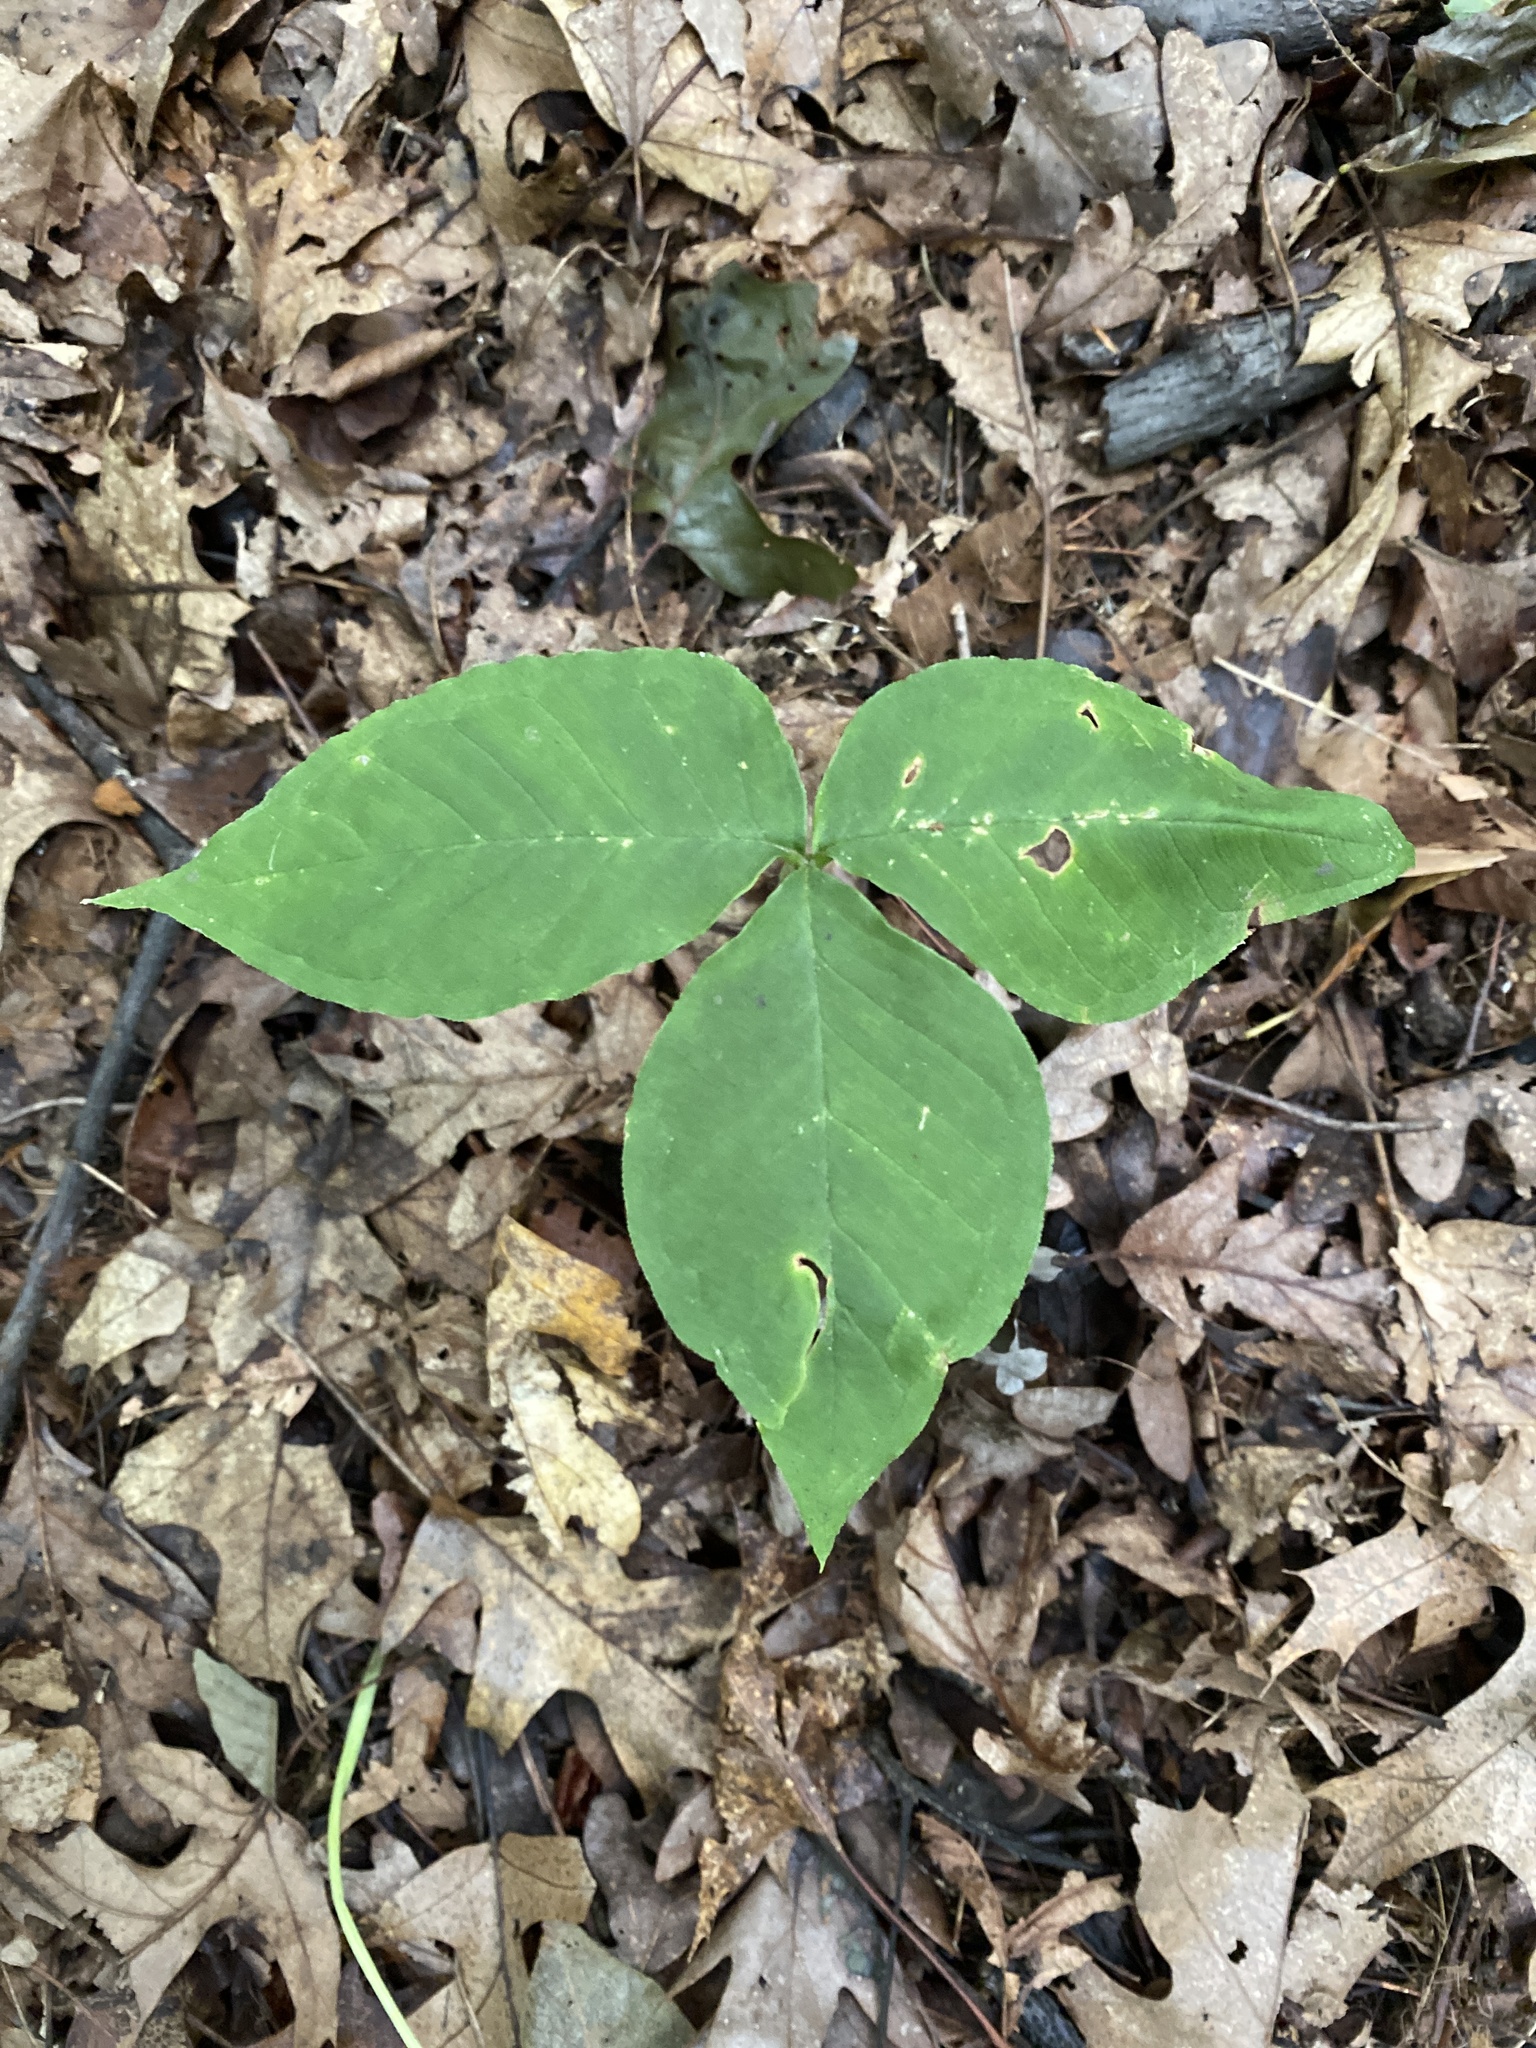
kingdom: Plantae
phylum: Tracheophyta
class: Liliopsida
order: Alismatales
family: Araceae
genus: Arisaema
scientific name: Arisaema triphyllum
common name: Jack-in-the-pulpit
